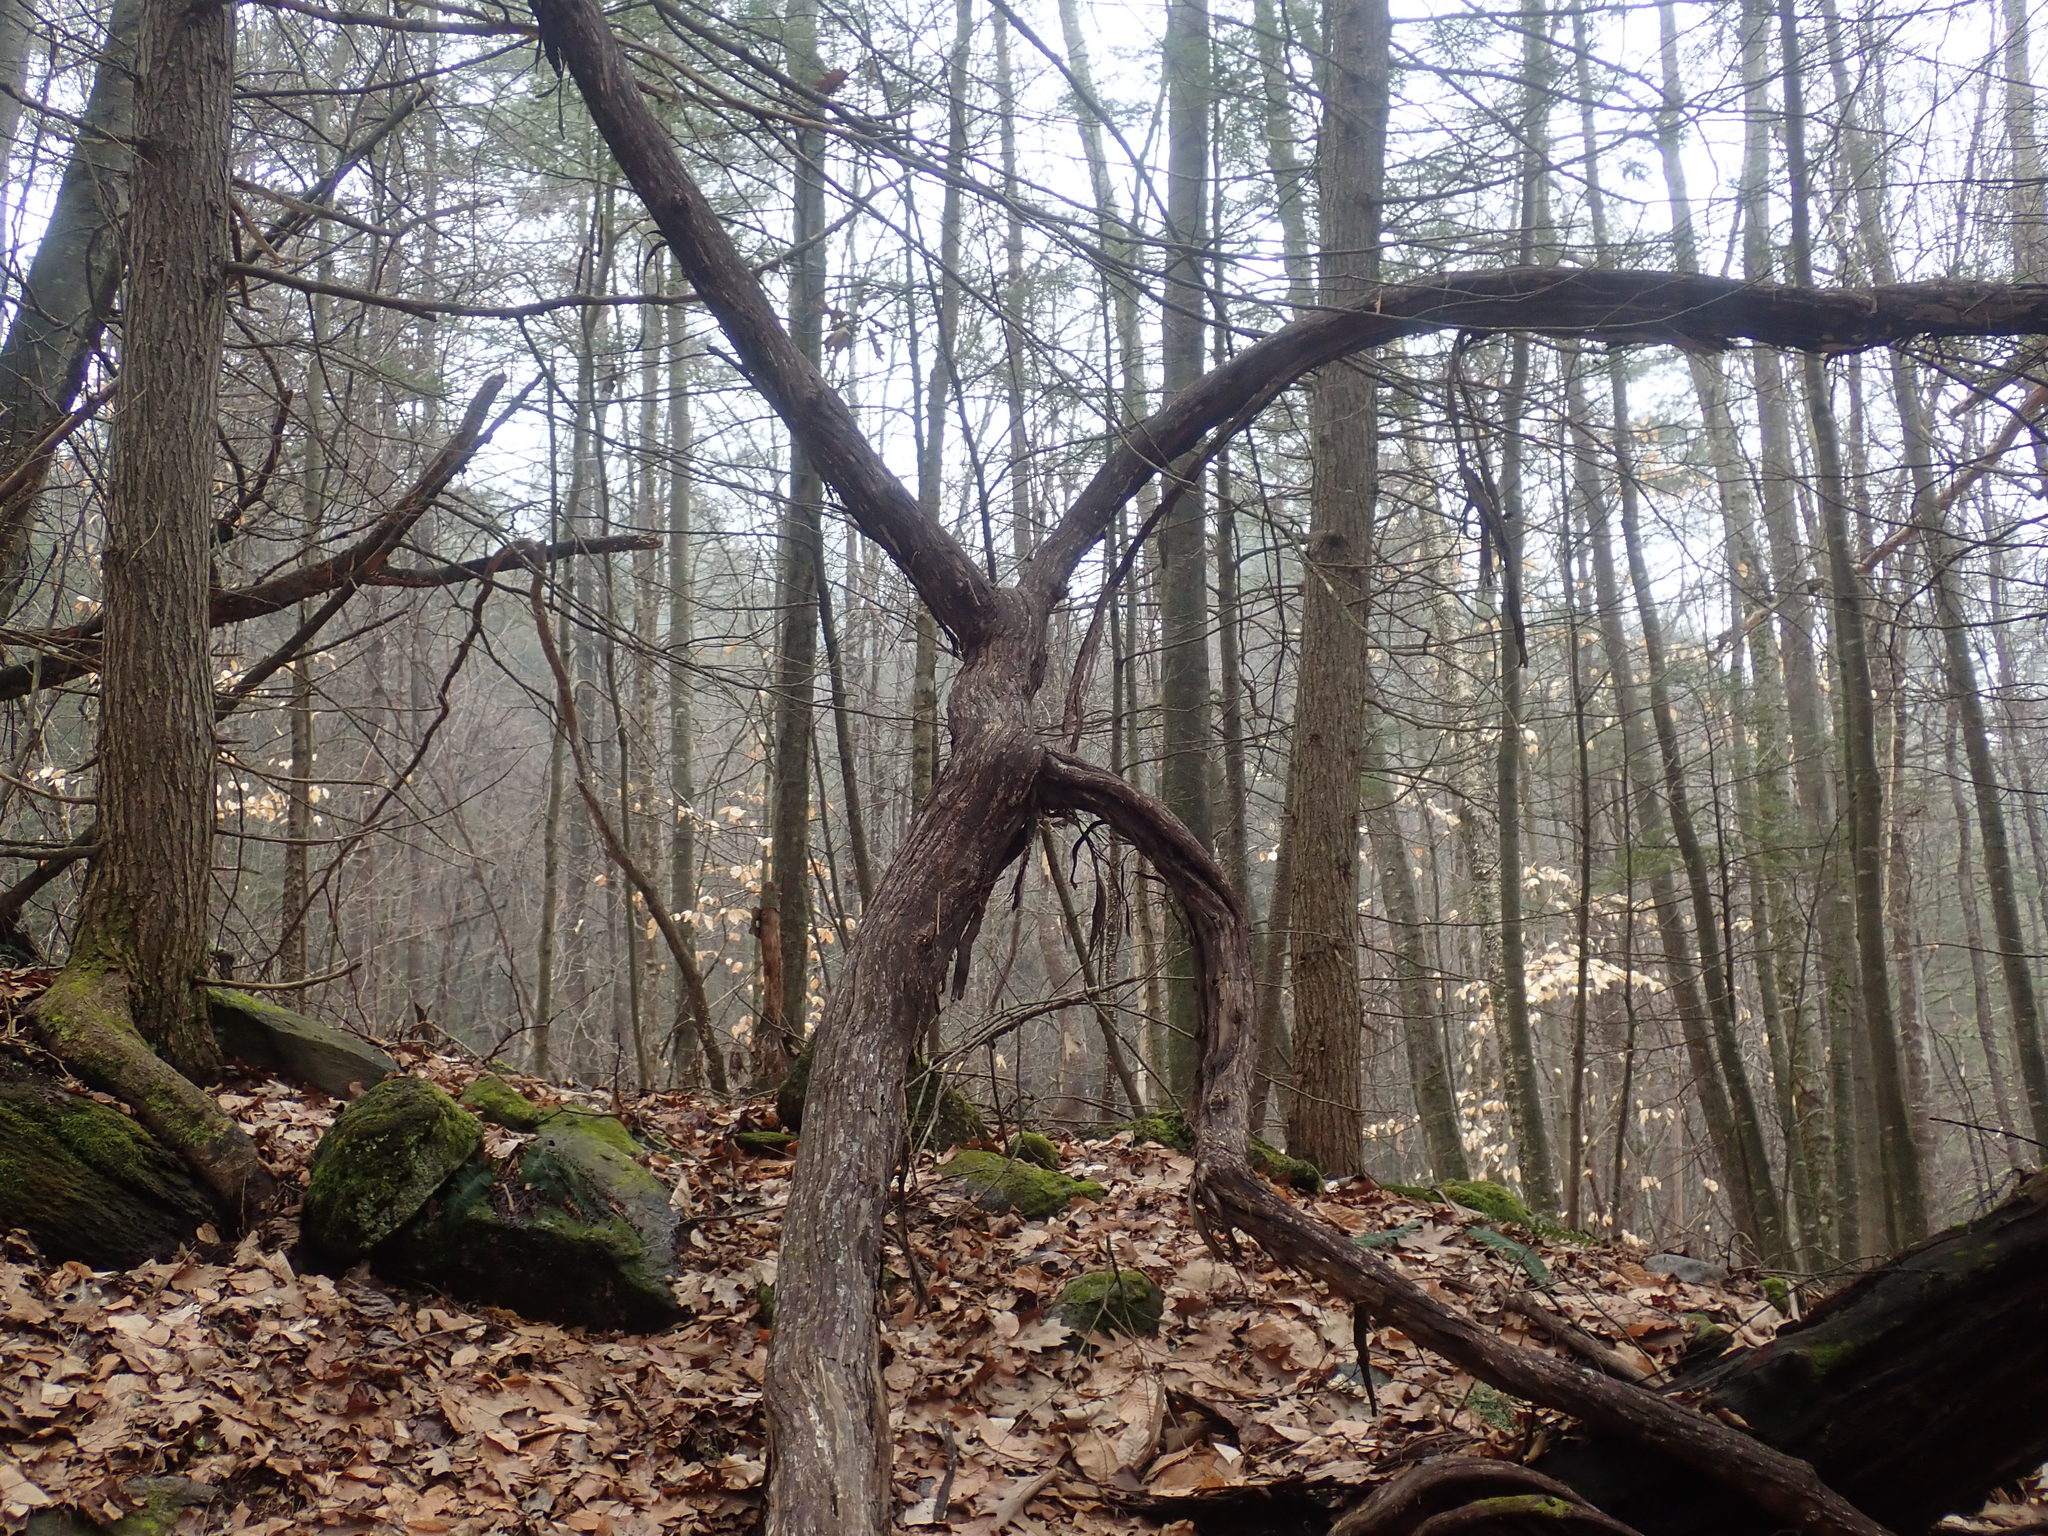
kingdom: Plantae
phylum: Tracheophyta
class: Magnoliopsida
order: Vitales
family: Vitaceae
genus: Vitis
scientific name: Vitis
